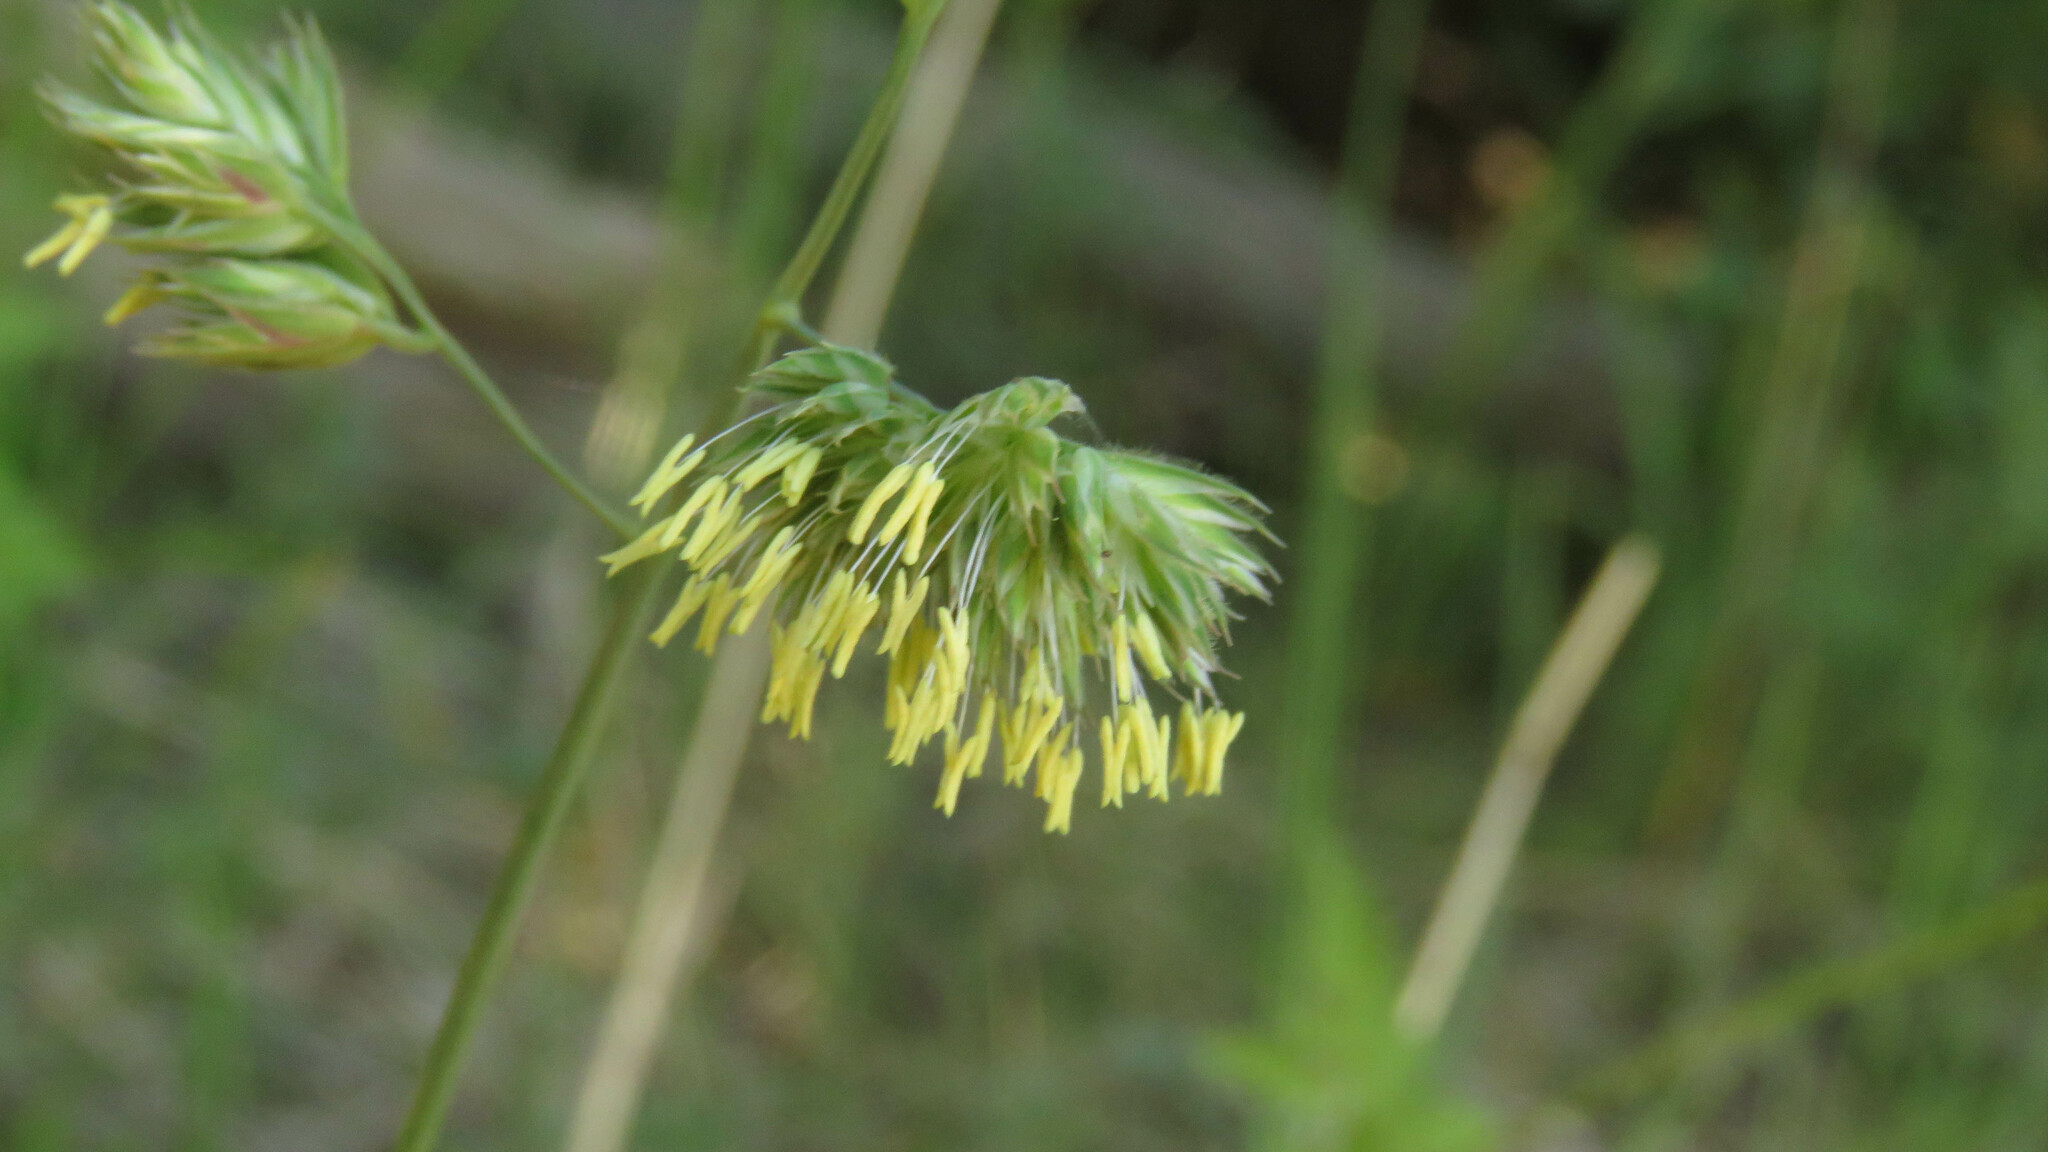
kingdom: Plantae
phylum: Tracheophyta
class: Liliopsida
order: Poales
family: Poaceae
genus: Dactylis
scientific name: Dactylis glomerata
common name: Orchardgrass
